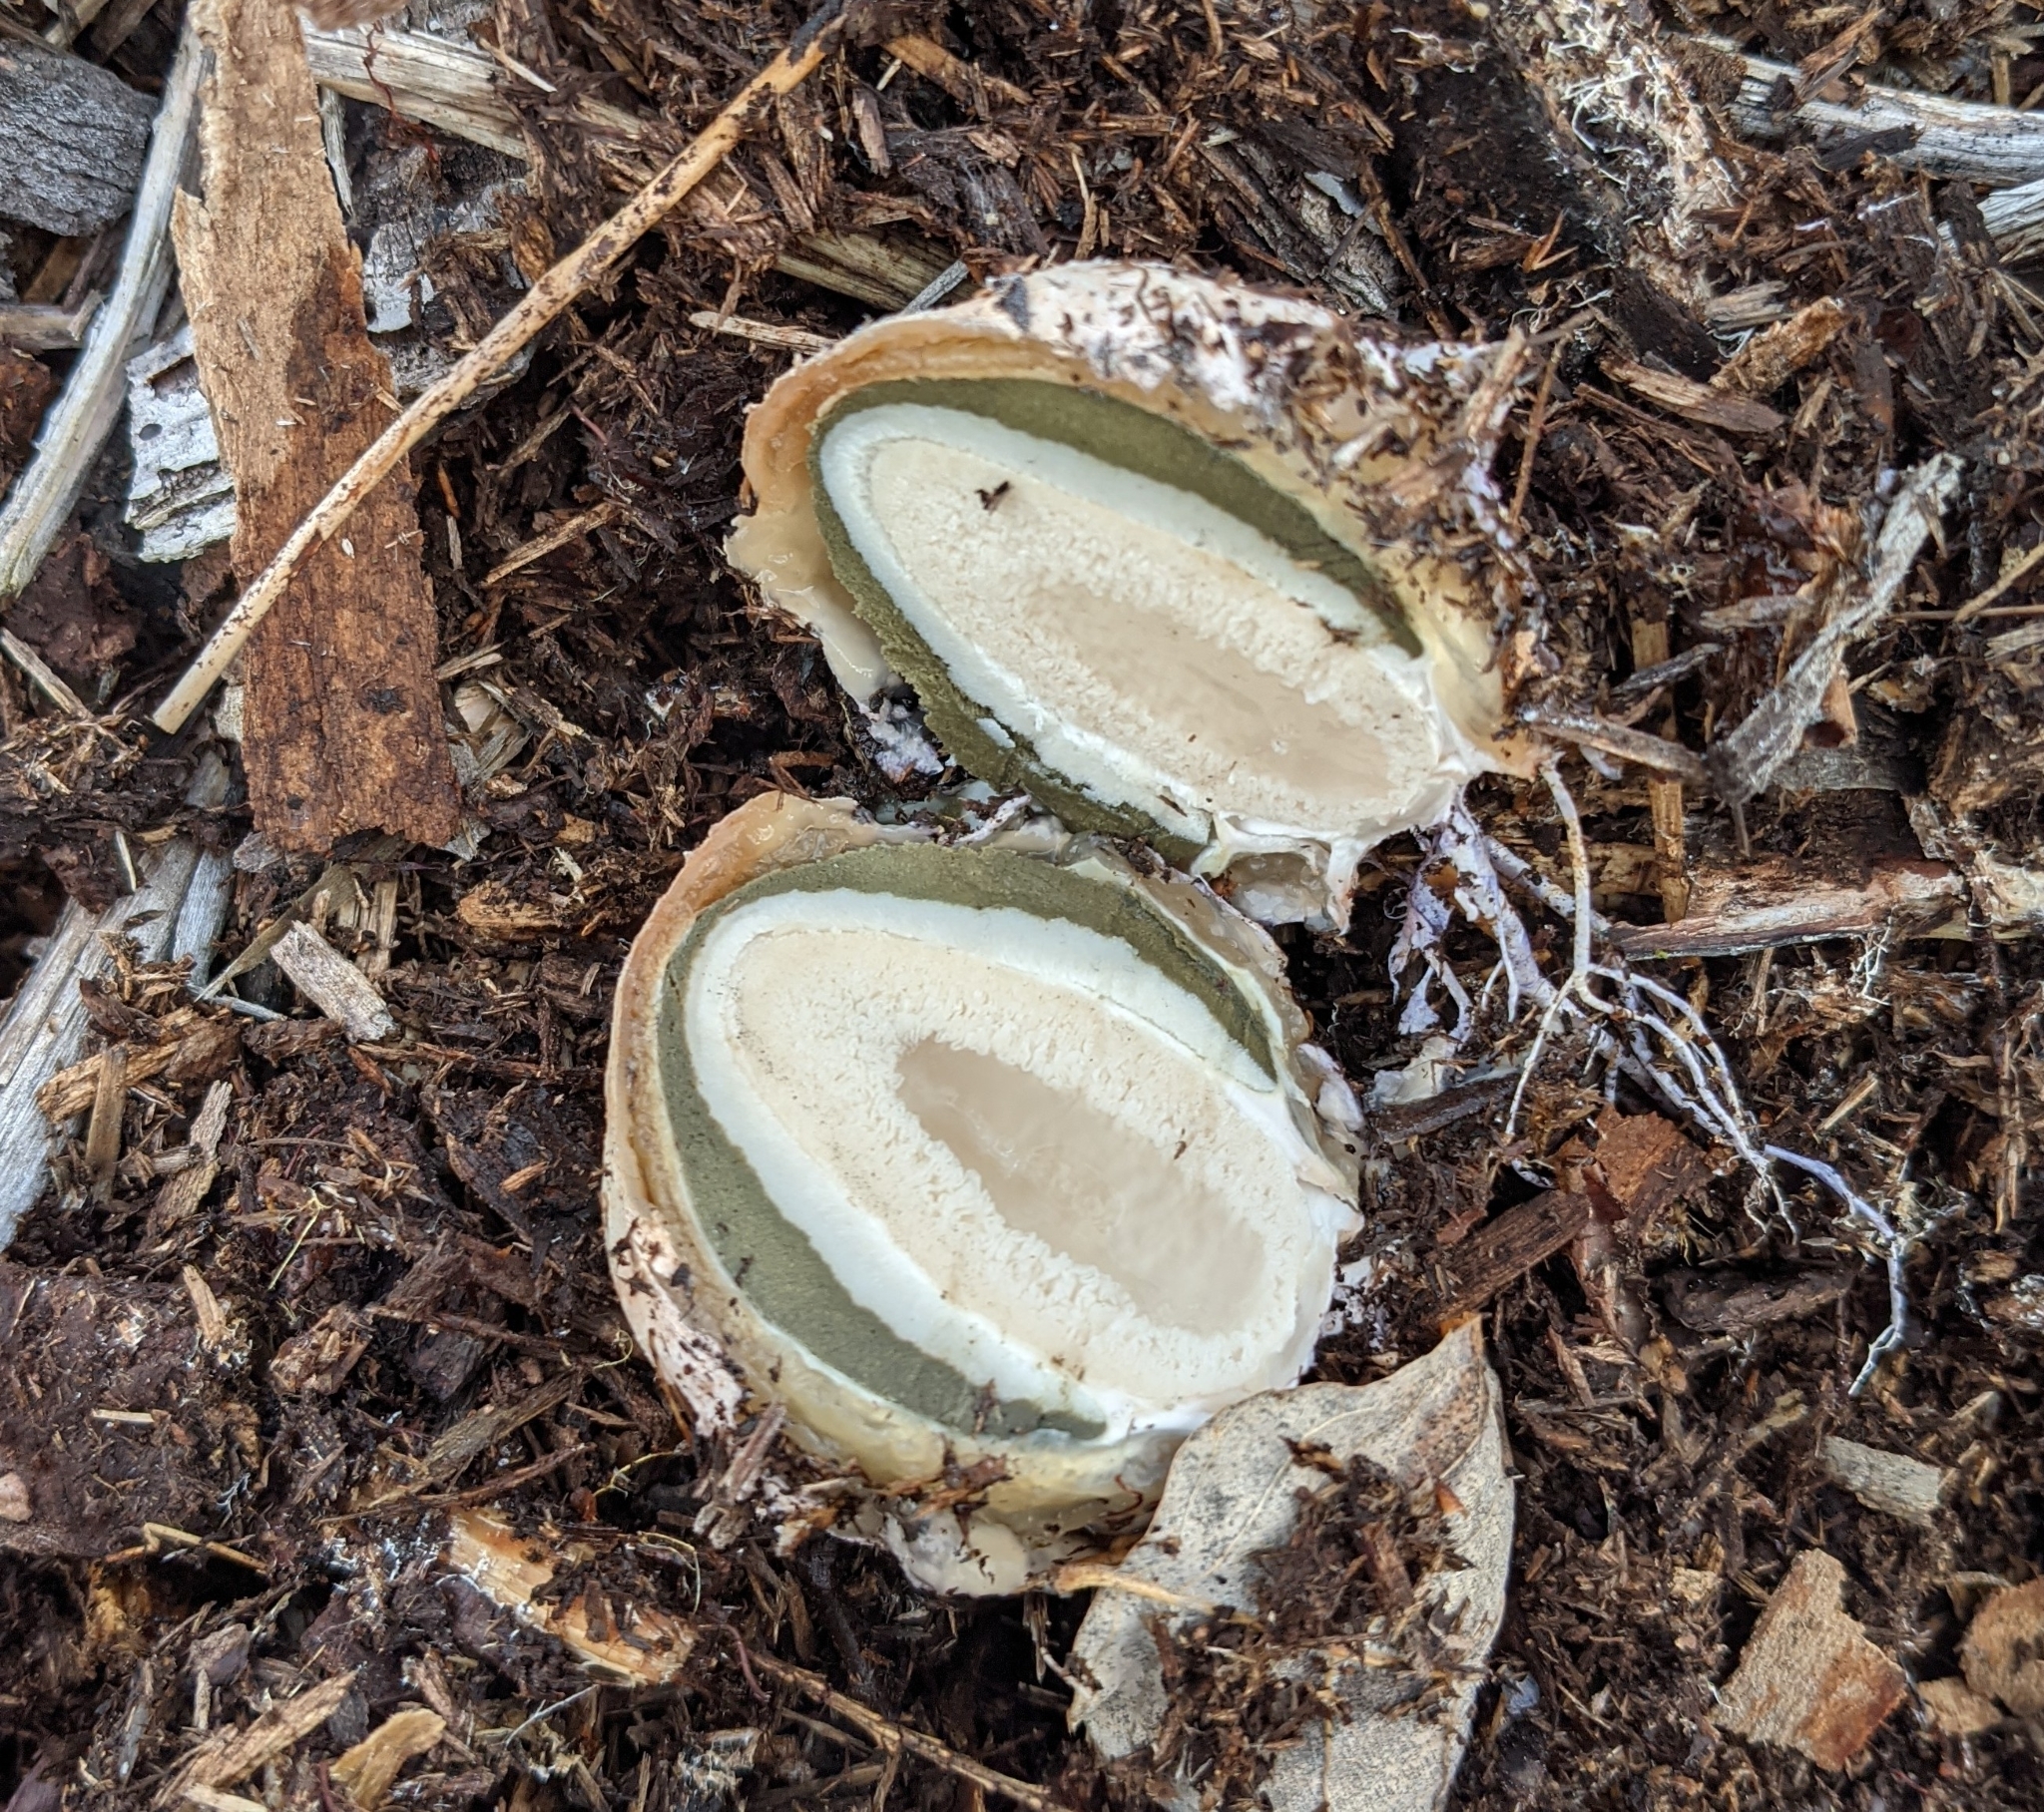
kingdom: Fungi
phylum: Basidiomycota
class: Agaricomycetes
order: Phallales
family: Phallaceae
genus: Phallus
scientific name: Phallus ravenelii
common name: Ravenel's stinkhorn
